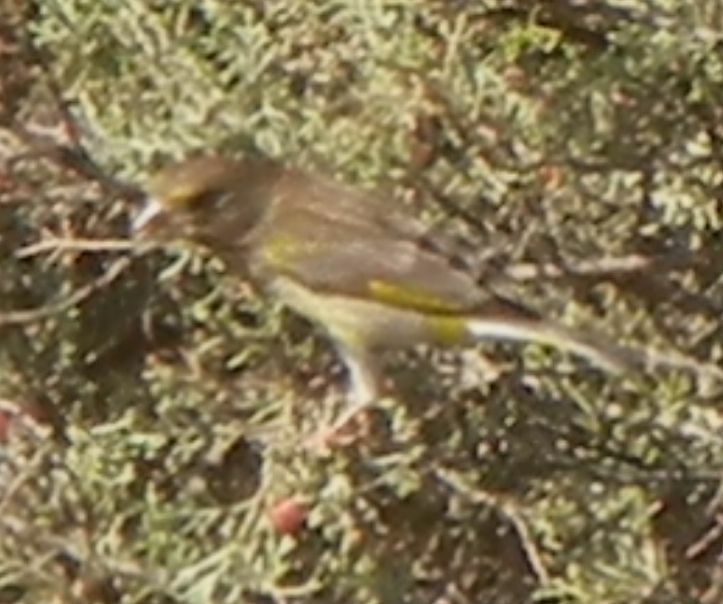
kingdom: Plantae
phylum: Tracheophyta
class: Liliopsida
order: Poales
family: Poaceae
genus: Chloris
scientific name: Chloris chloris
